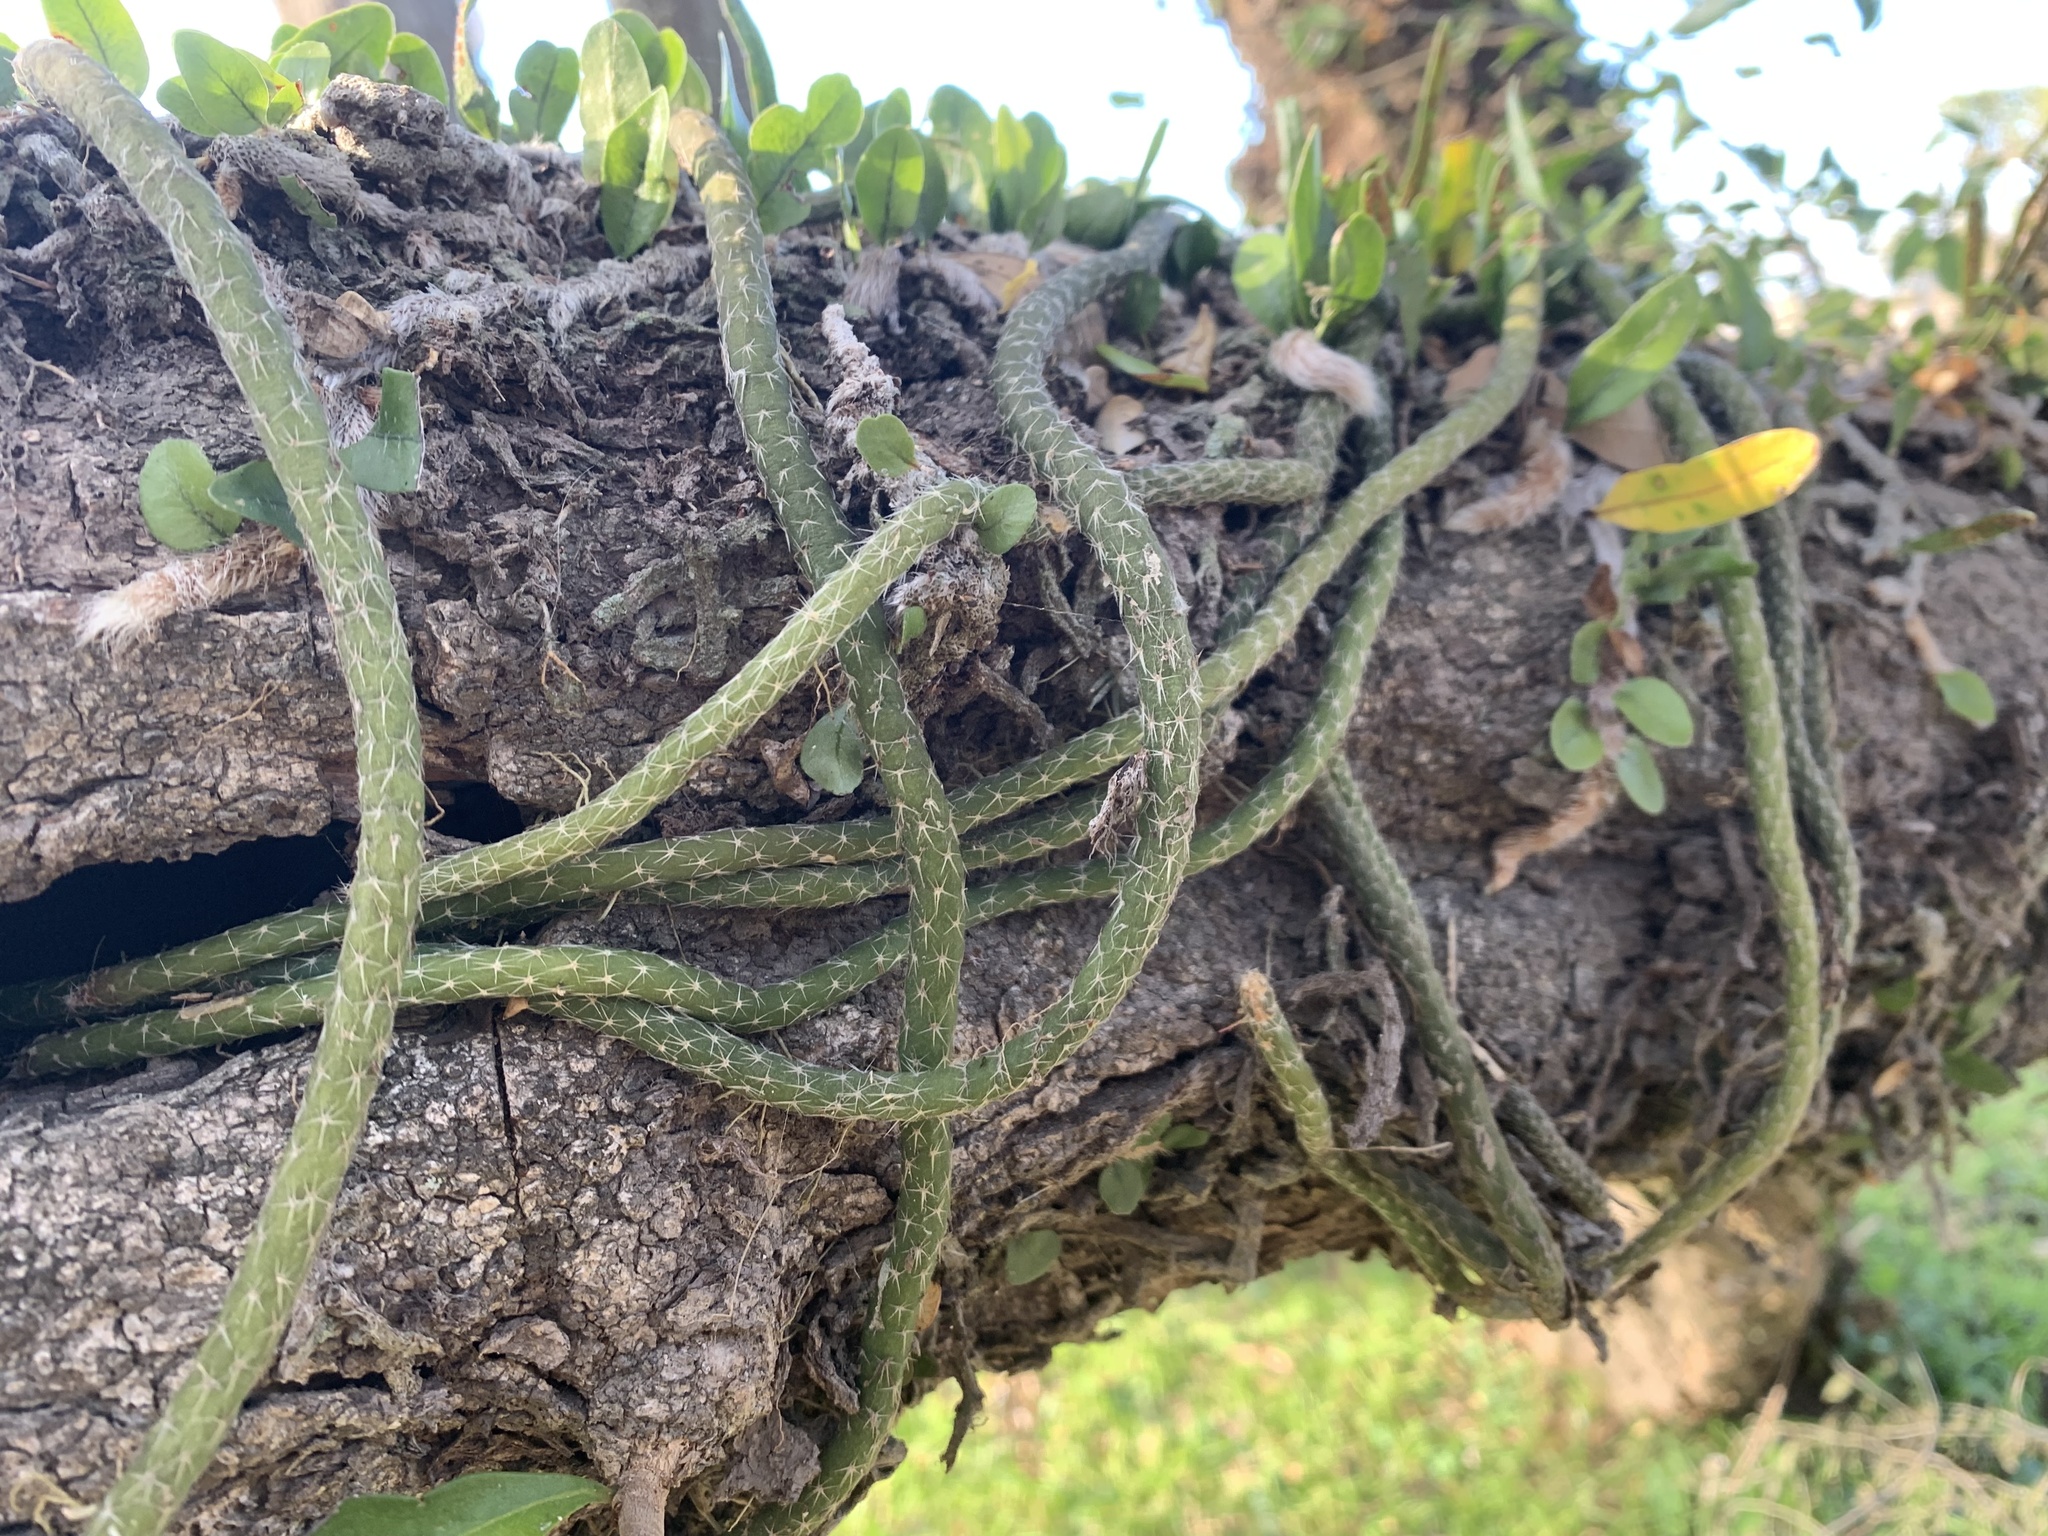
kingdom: Plantae
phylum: Tracheophyta
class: Magnoliopsida
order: Caryophyllales
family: Cactaceae
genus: Lepismium
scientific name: Lepismium lumbricoides
